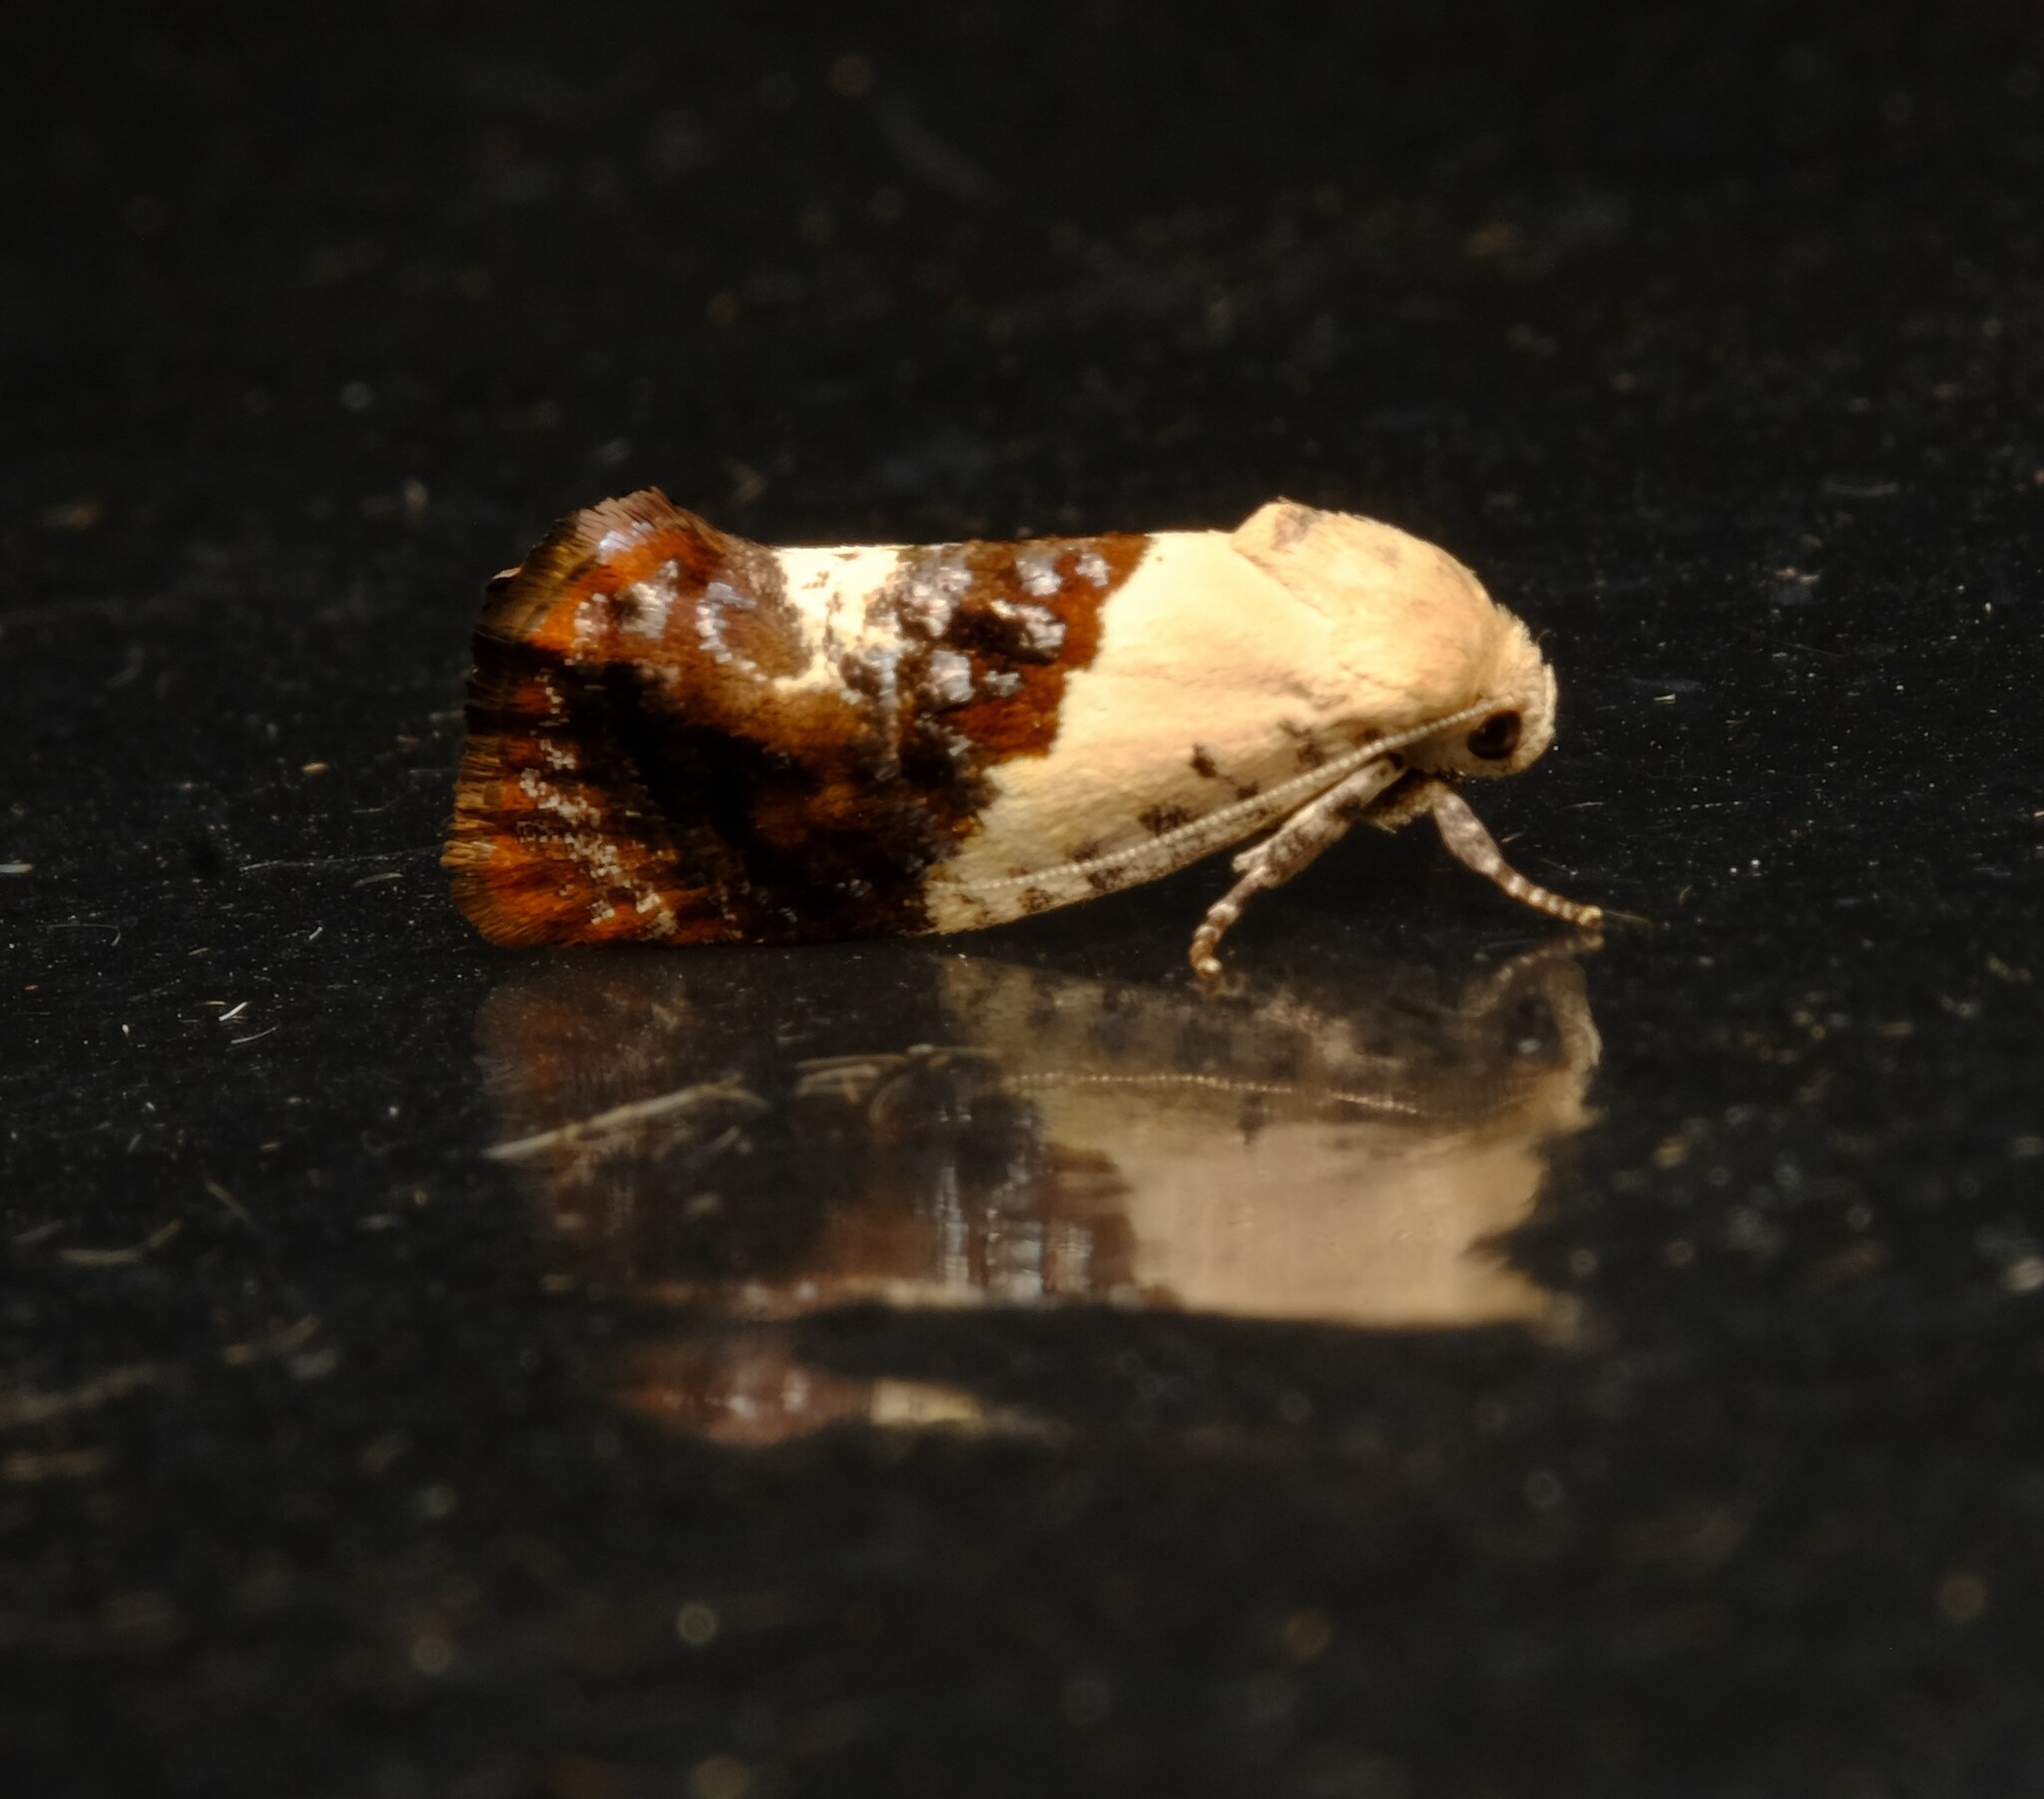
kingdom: Animalia
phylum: Arthropoda
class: Insecta
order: Lepidoptera
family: Depressariidae
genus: Hypertropha
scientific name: Hypertropha chlaenota
